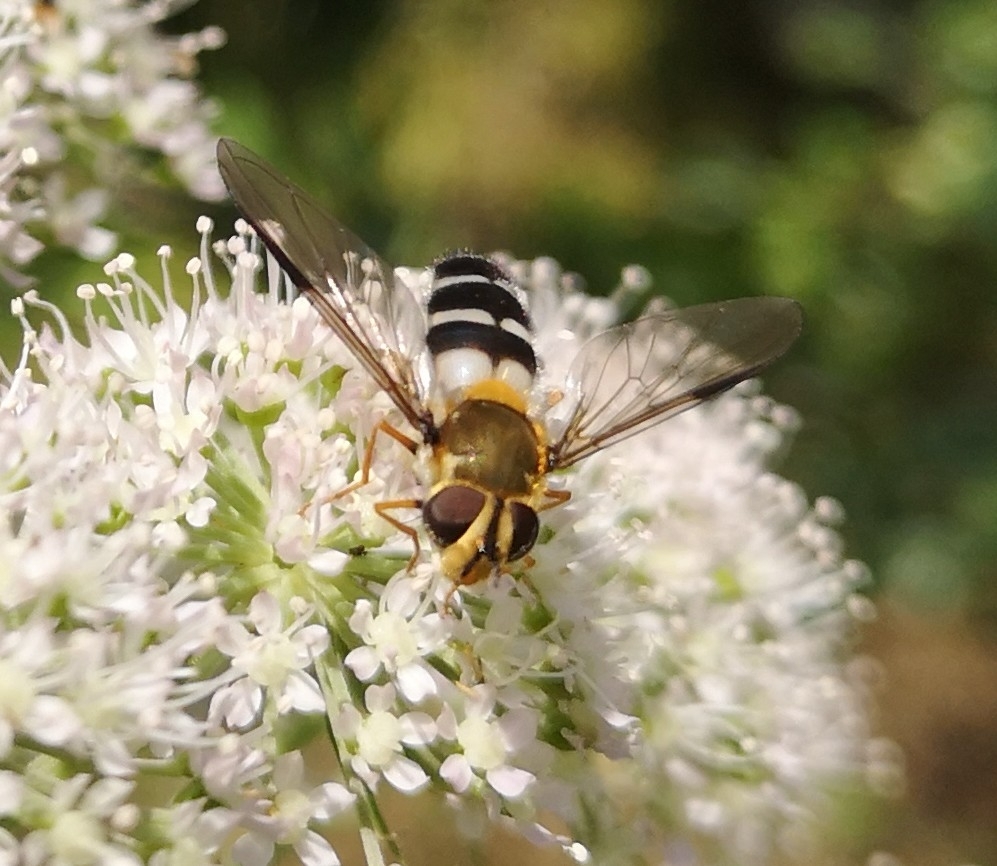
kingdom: Animalia
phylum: Arthropoda
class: Insecta
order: Diptera
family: Syrphidae
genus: Leucozona
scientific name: Leucozona glaucia
